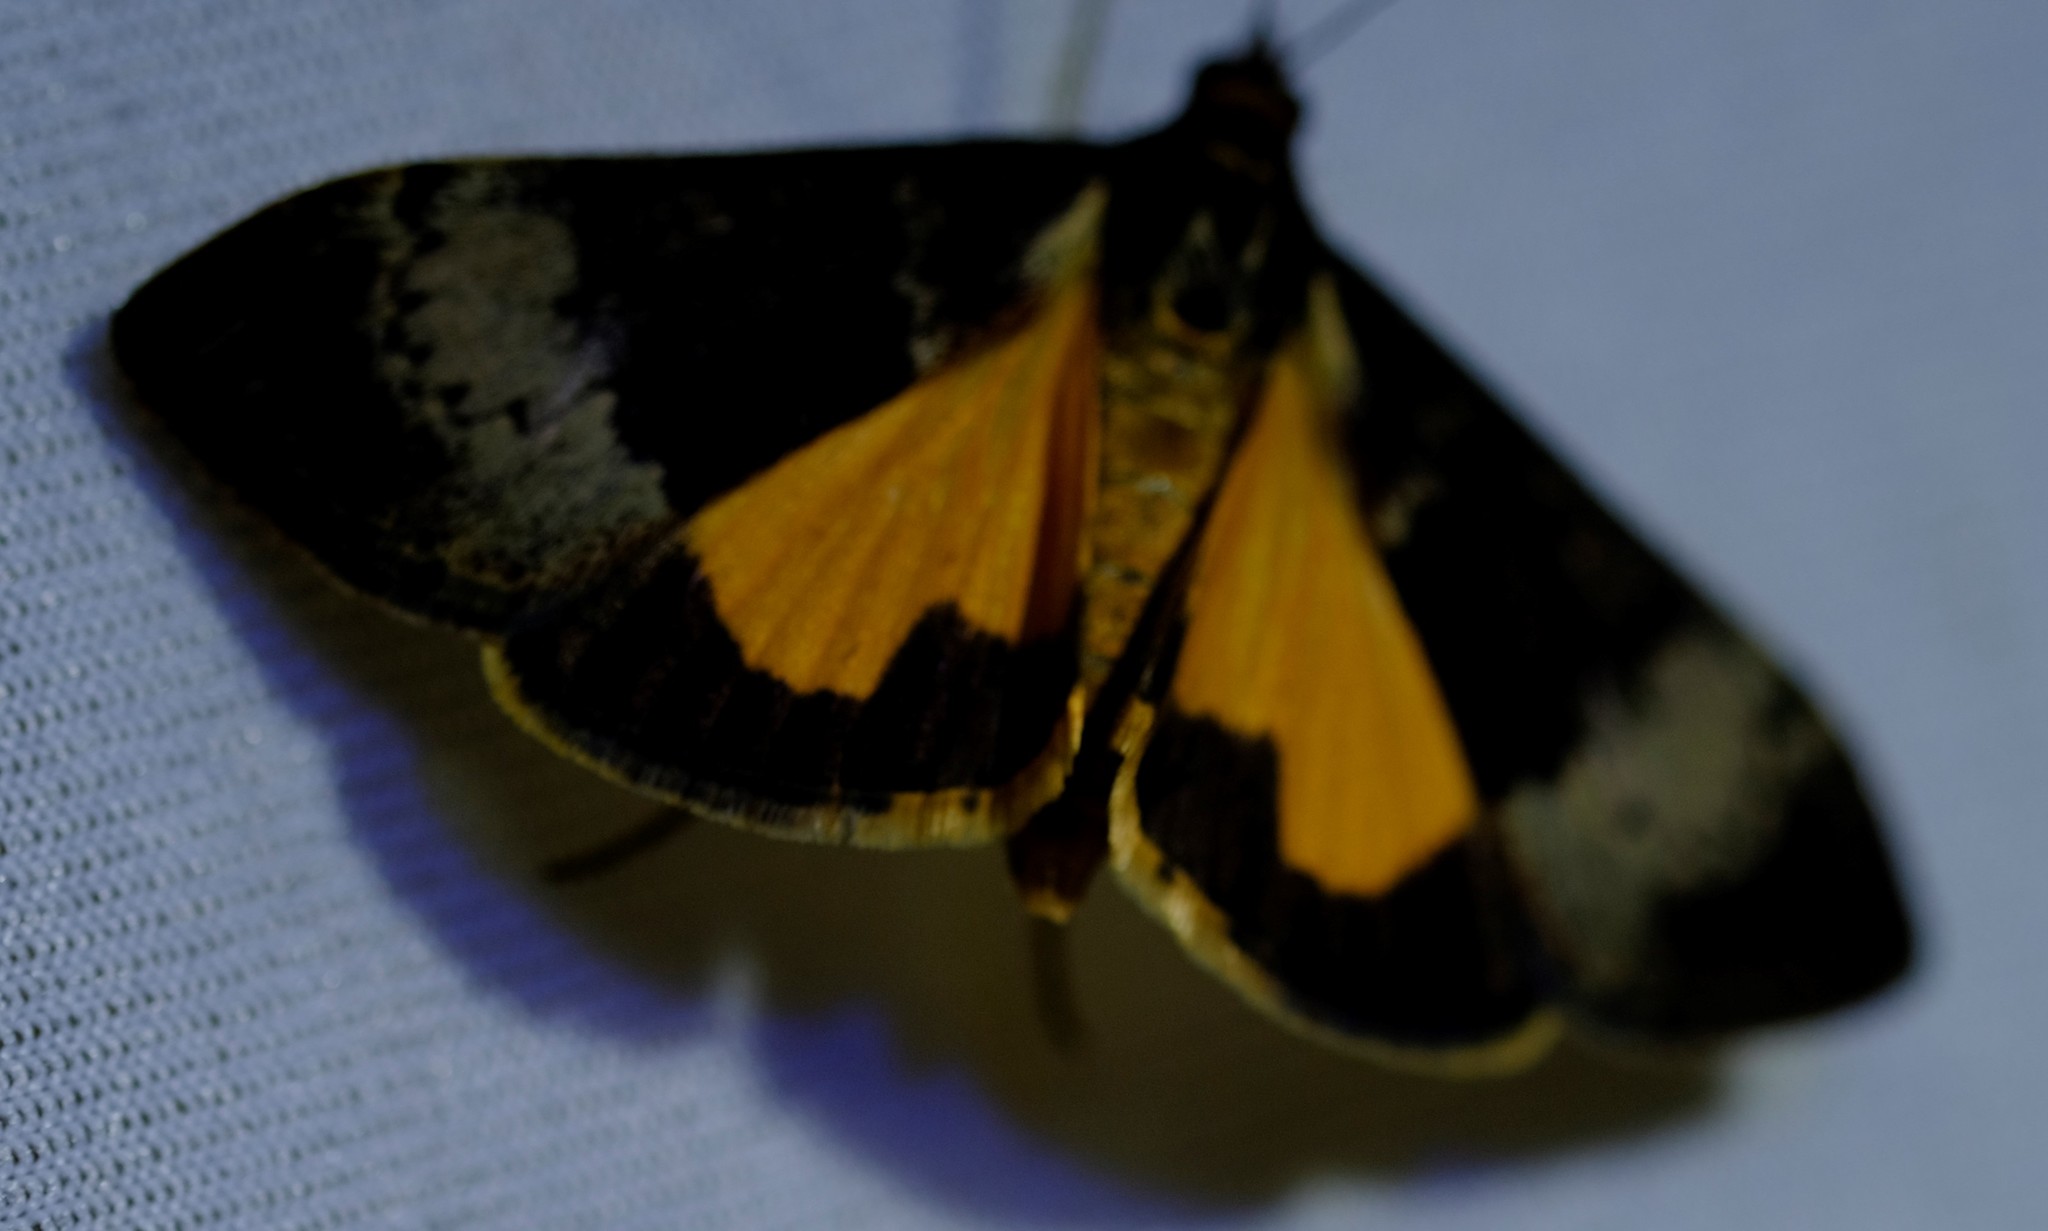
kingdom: Animalia
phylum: Arthropoda
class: Insecta
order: Lepidoptera
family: Crambidae
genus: Uresiphita
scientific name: Uresiphita ornithopteralis
